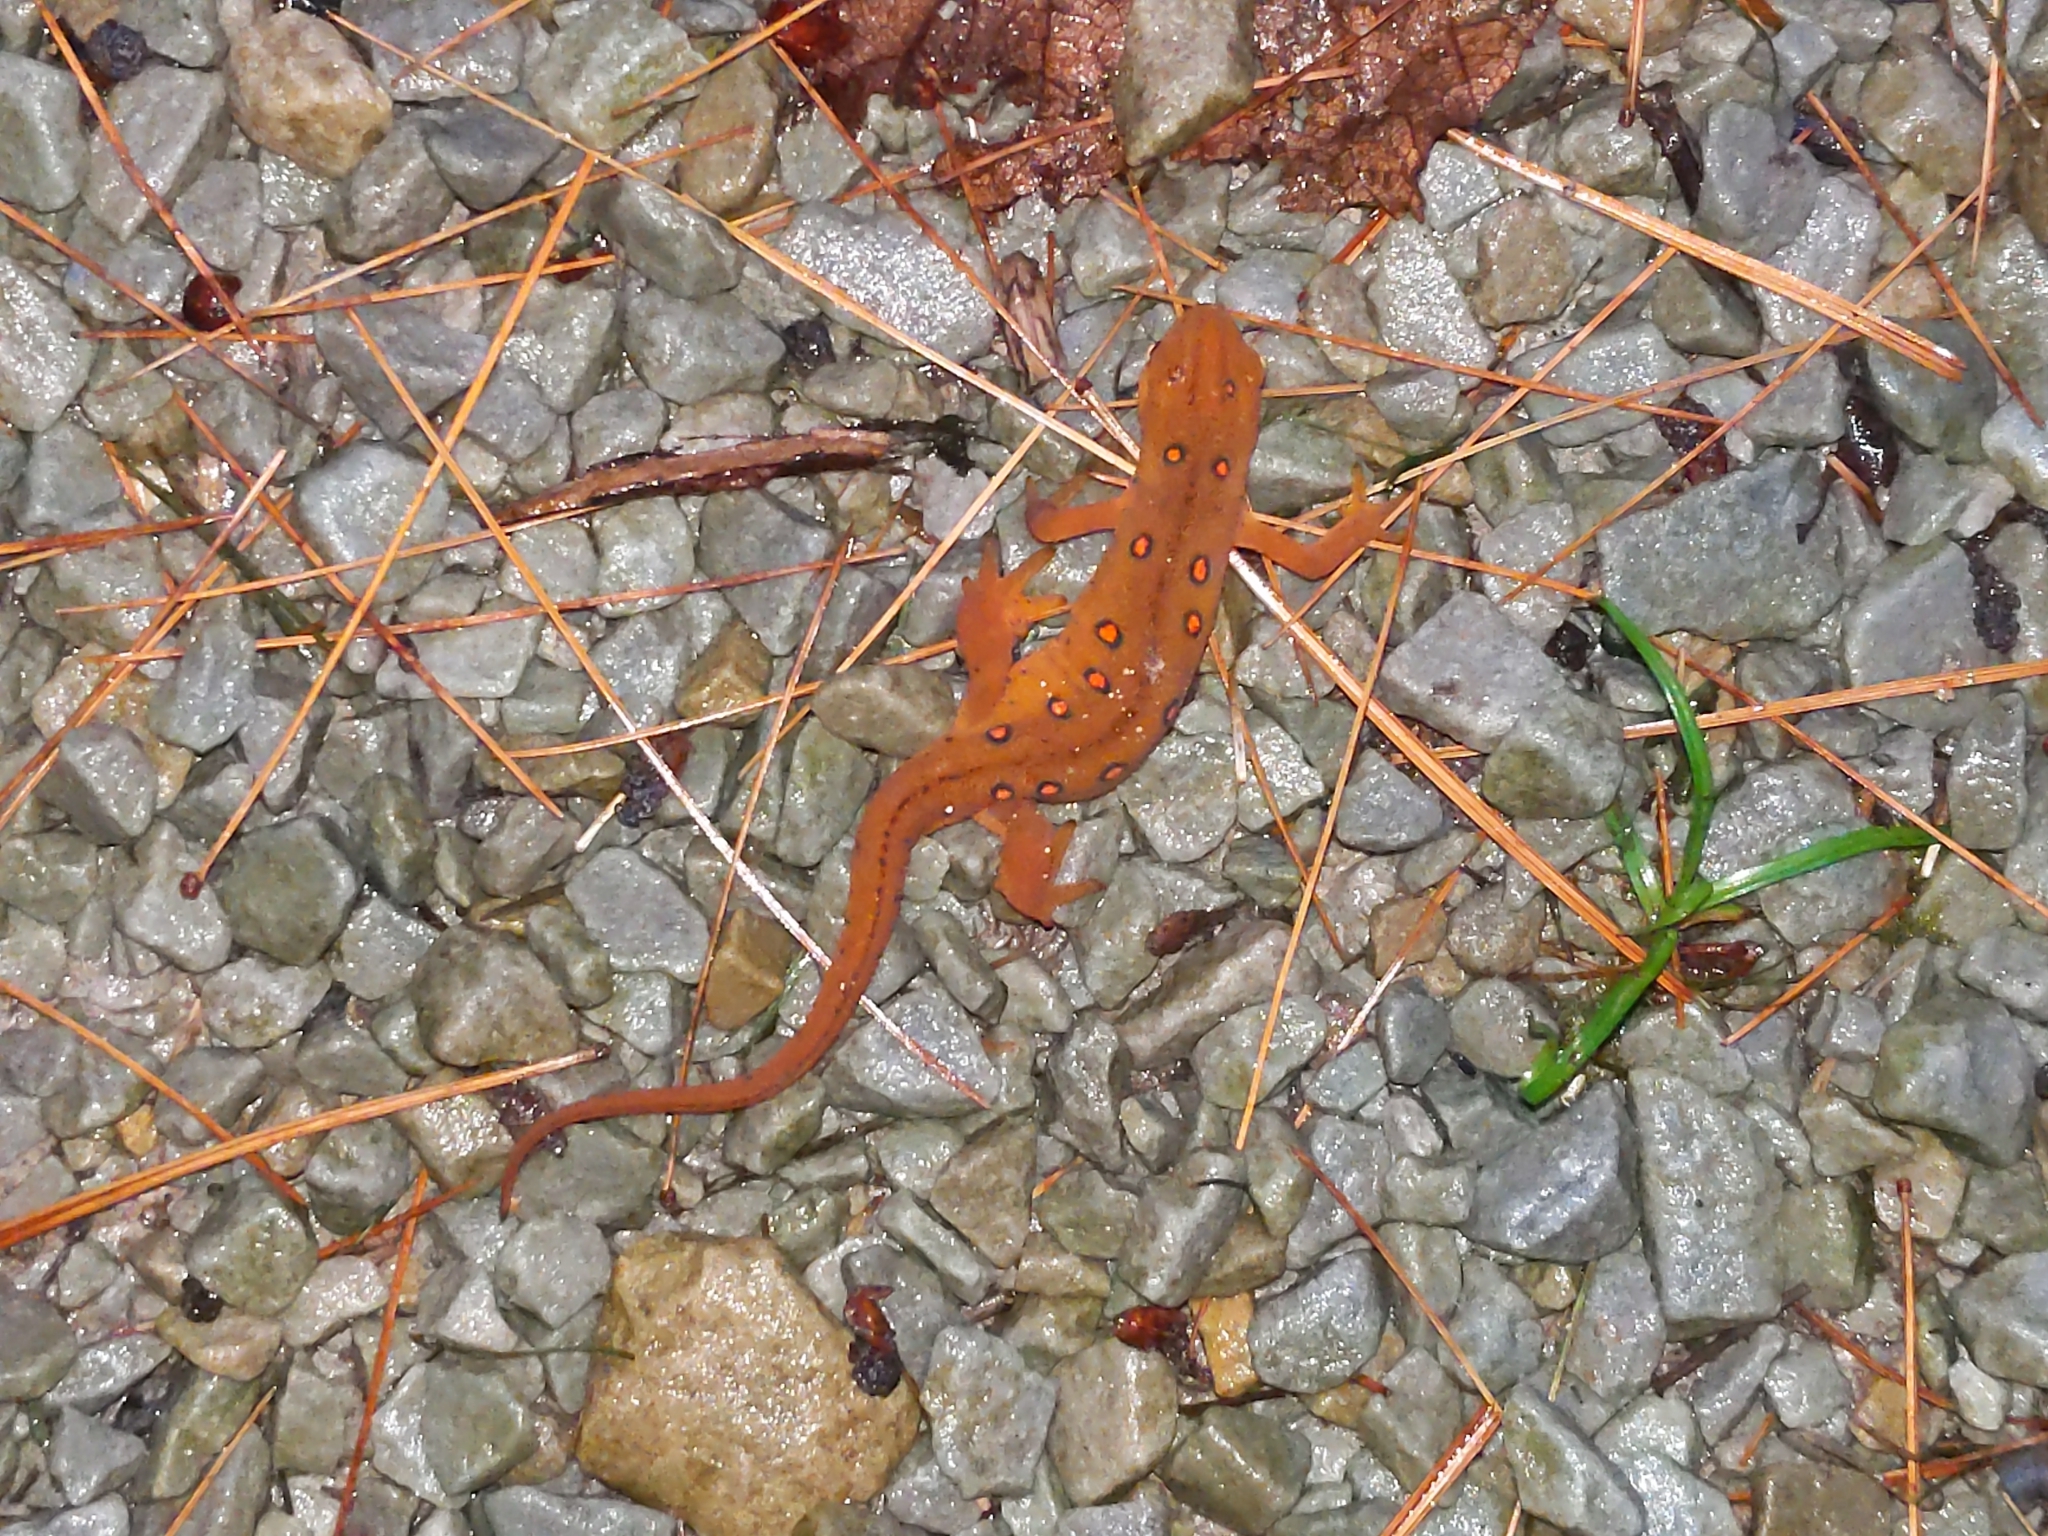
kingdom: Animalia
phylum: Chordata
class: Amphibia
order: Caudata
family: Salamandridae
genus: Notophthalmus
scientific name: Notophthalmus viridescens
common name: Eastern newt
